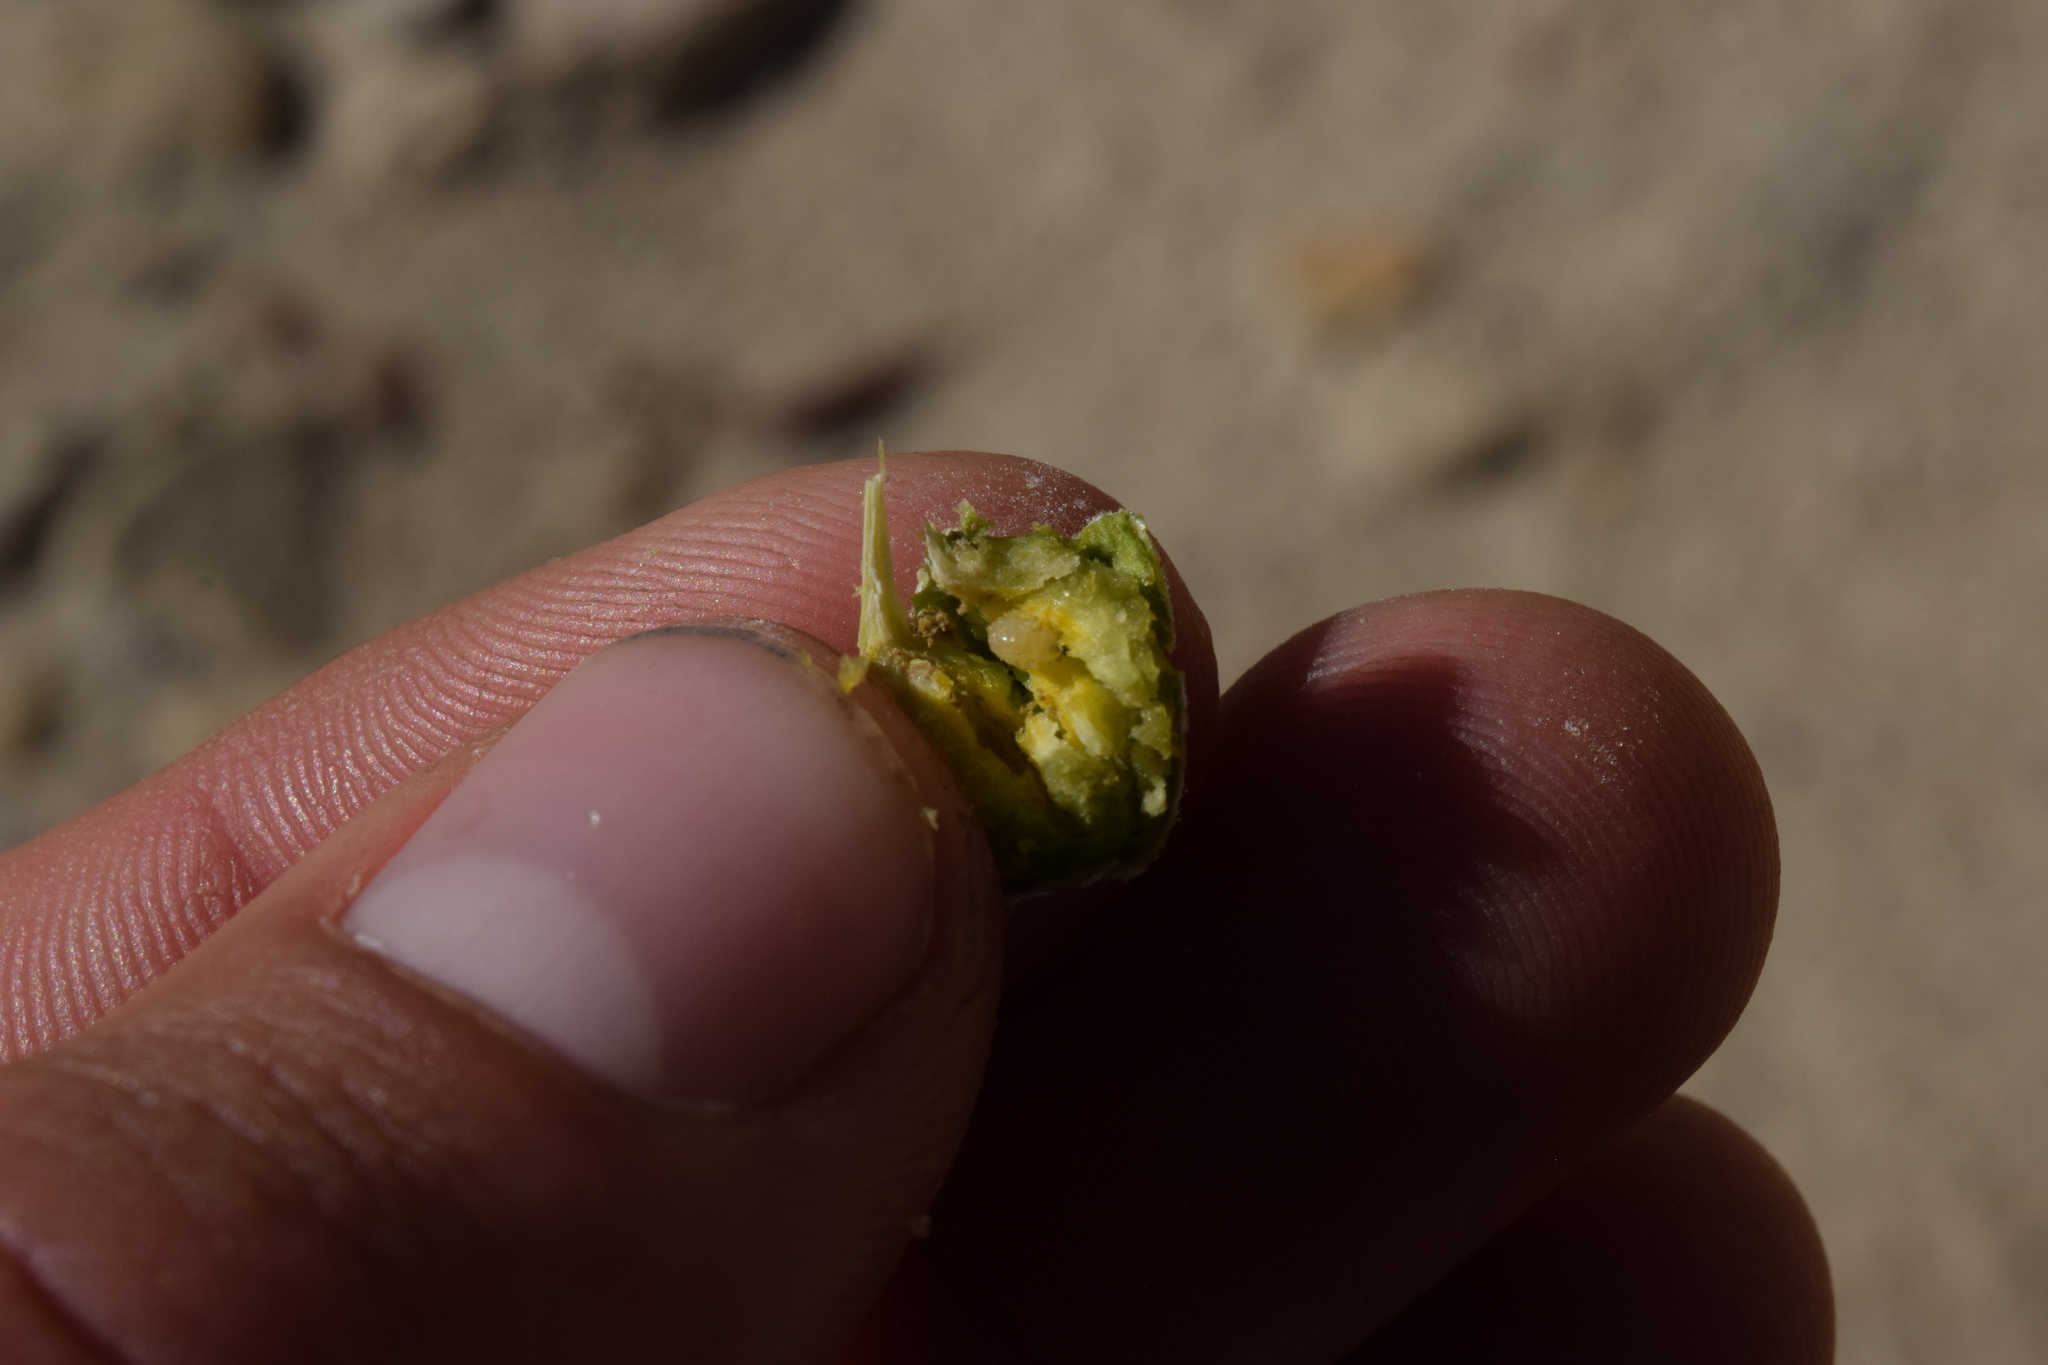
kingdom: Animalia
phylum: Arthropoda
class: Insecta
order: Diptera
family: Tephritidae
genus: Aciurina
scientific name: Aciurina trixa
